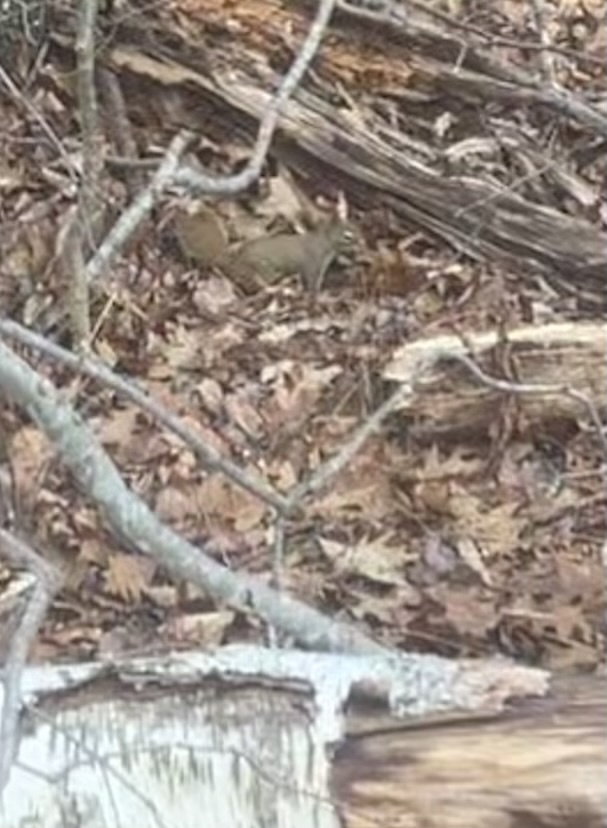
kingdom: Animalia
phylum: Chordata
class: Mammalia
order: Rodentia
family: Sciuridae
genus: Tamiasciurus
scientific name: Tamiasciurus hudsonicus
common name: Red squirrel
